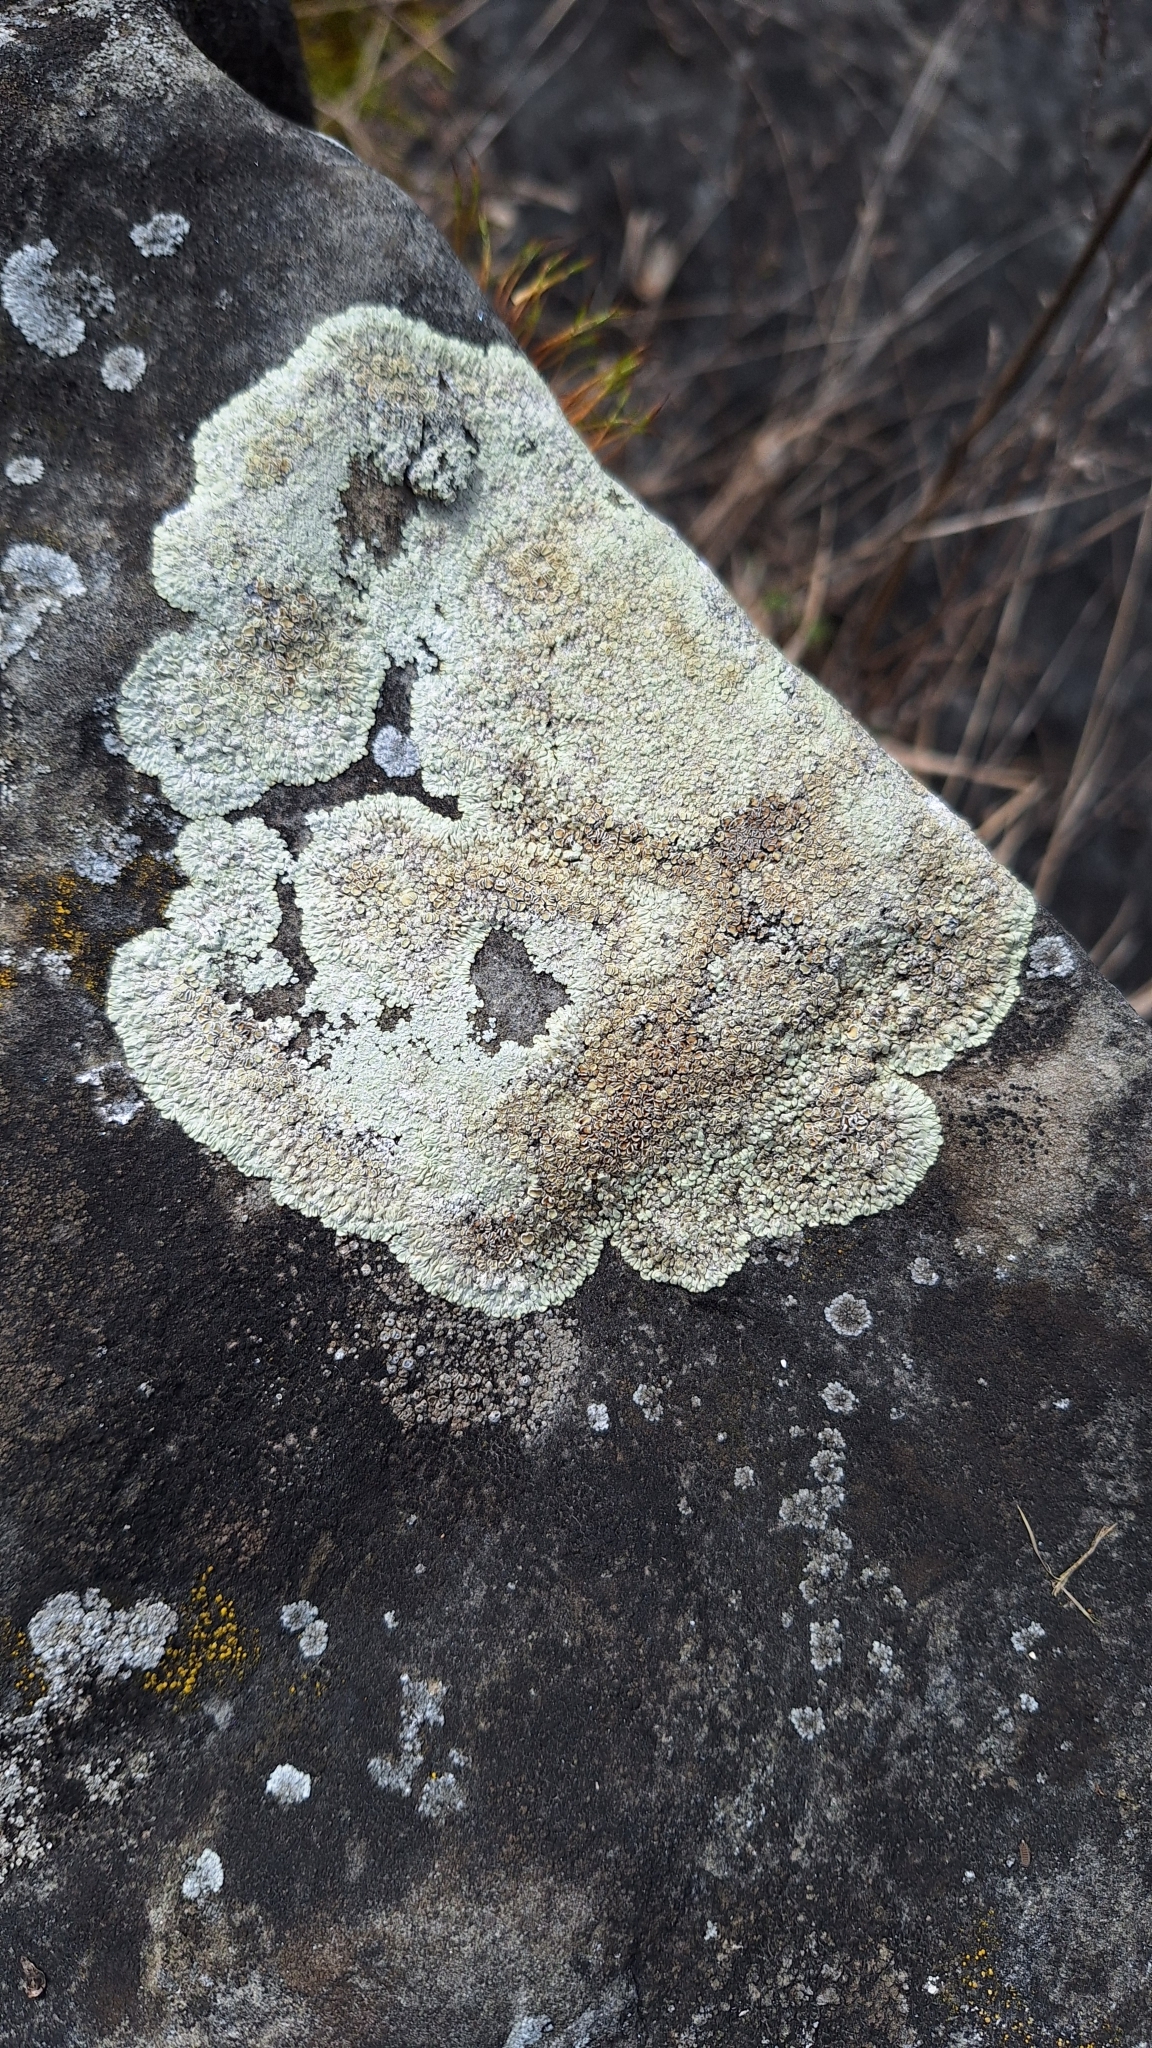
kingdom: Fungi
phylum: Ascomycota
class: Lecanoromycetes
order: Lecanorales
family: Lecanoraceae
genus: Protoparmeliopsis
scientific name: Protoparmeliopsis muralis
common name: Stonewall rim lichen
